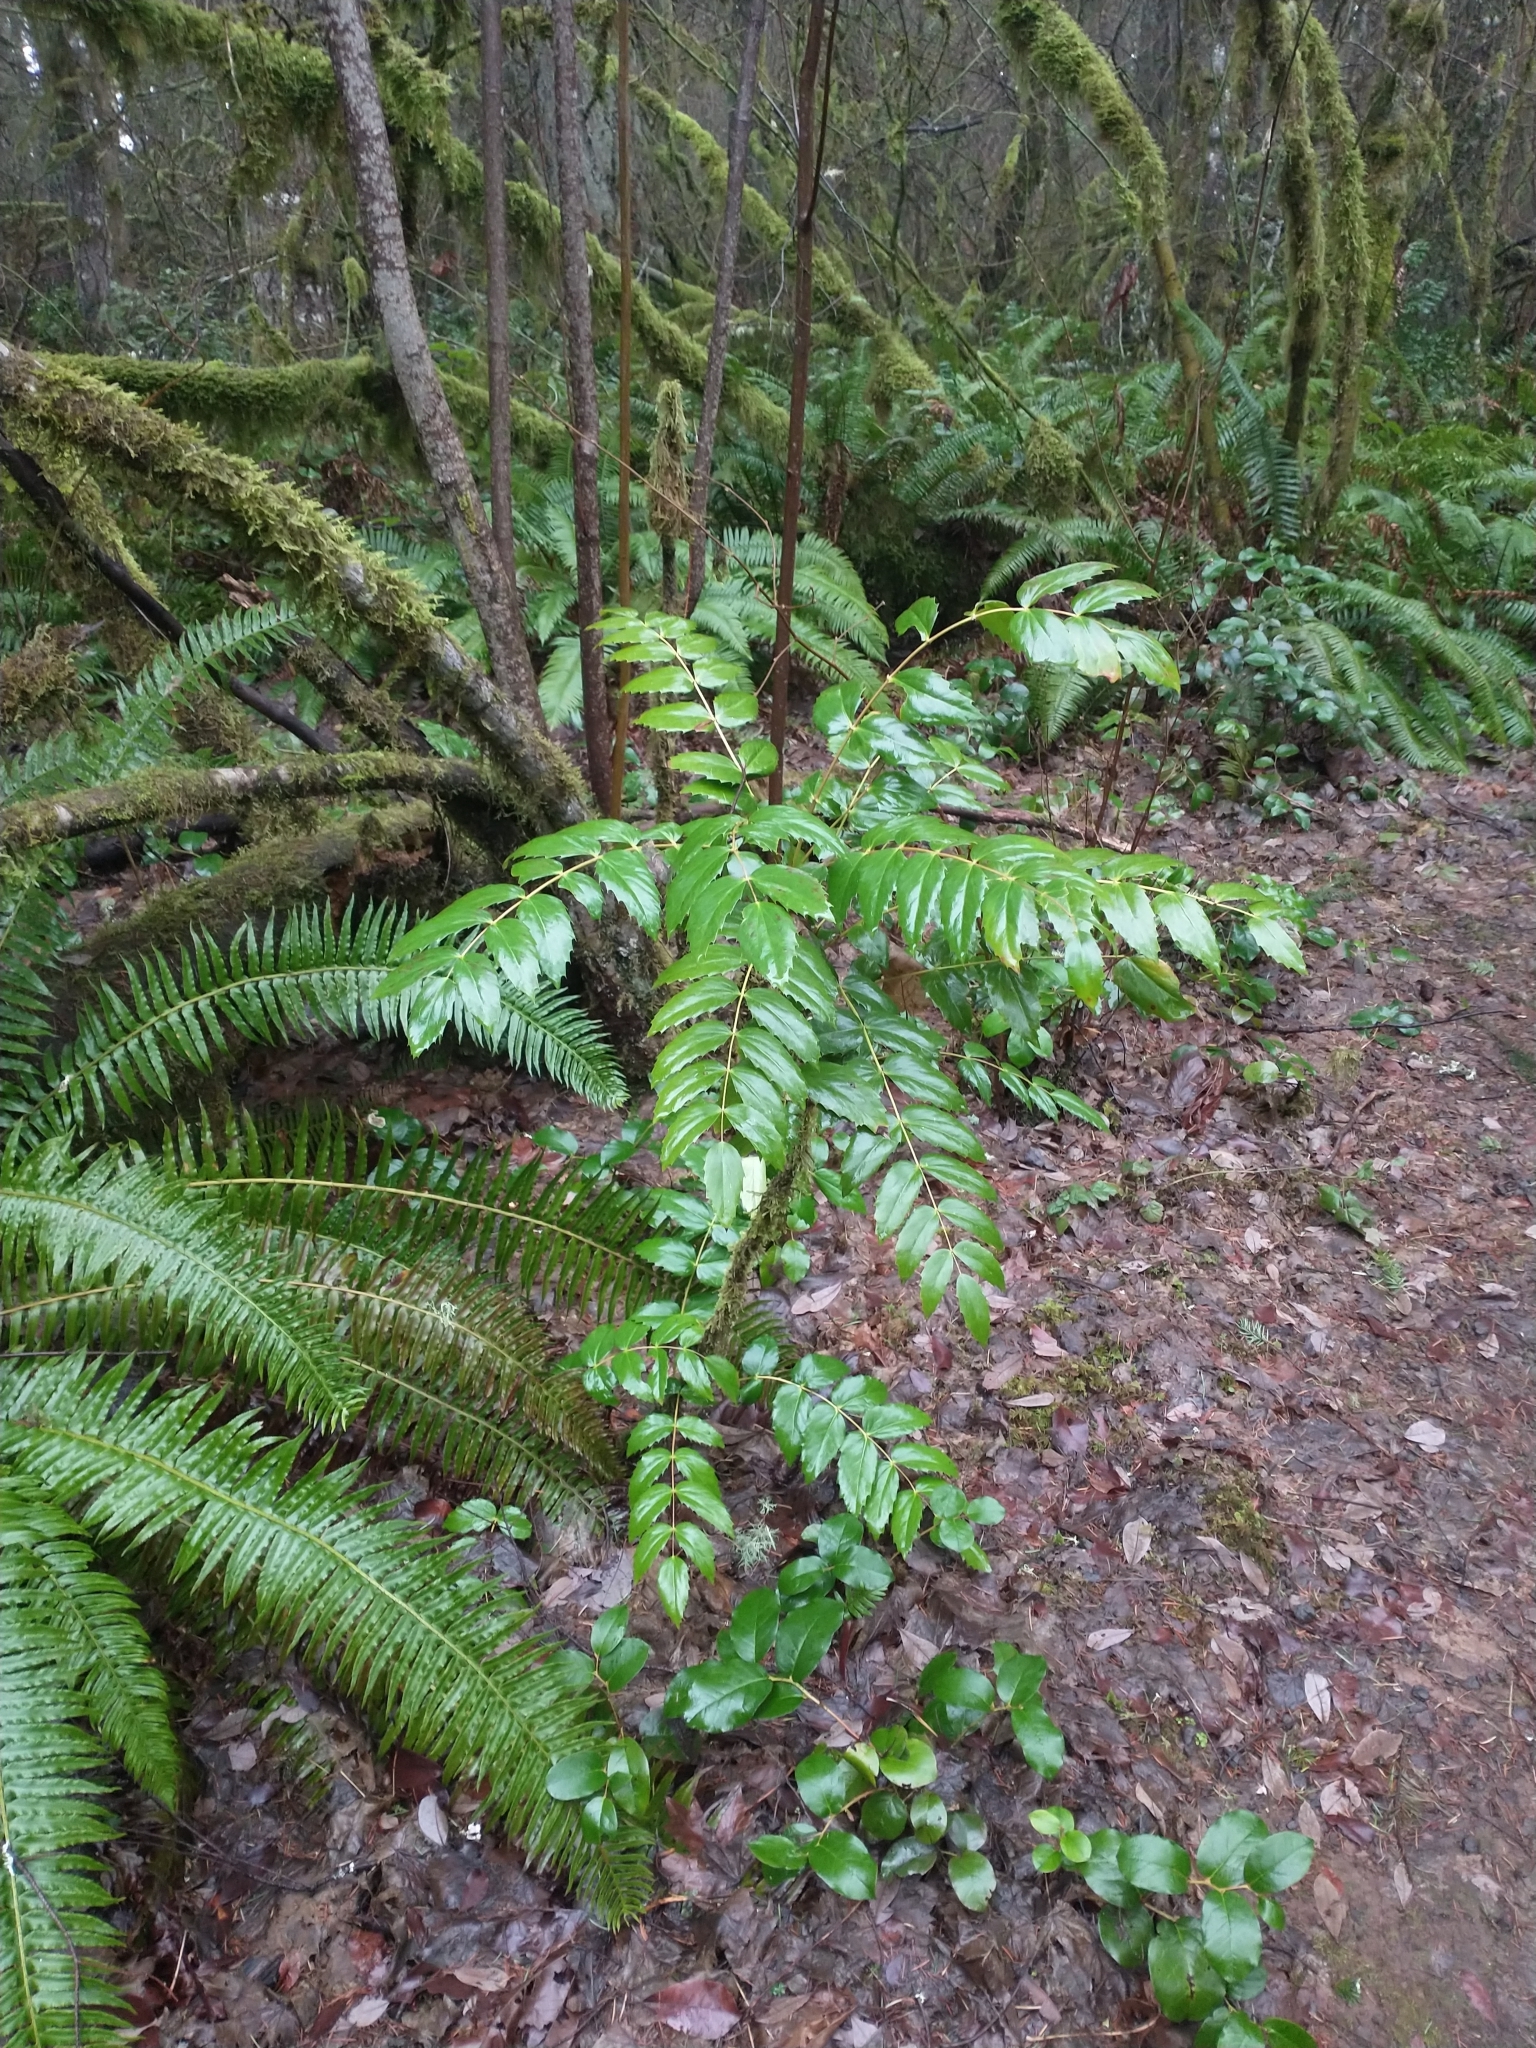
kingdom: Plantae
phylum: Tracheophyta
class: Magnoliopsida
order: Ranunculales
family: Berberidaceae
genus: Mahonia
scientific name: Mahonia nervosa
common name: Cascade oregon-grape
